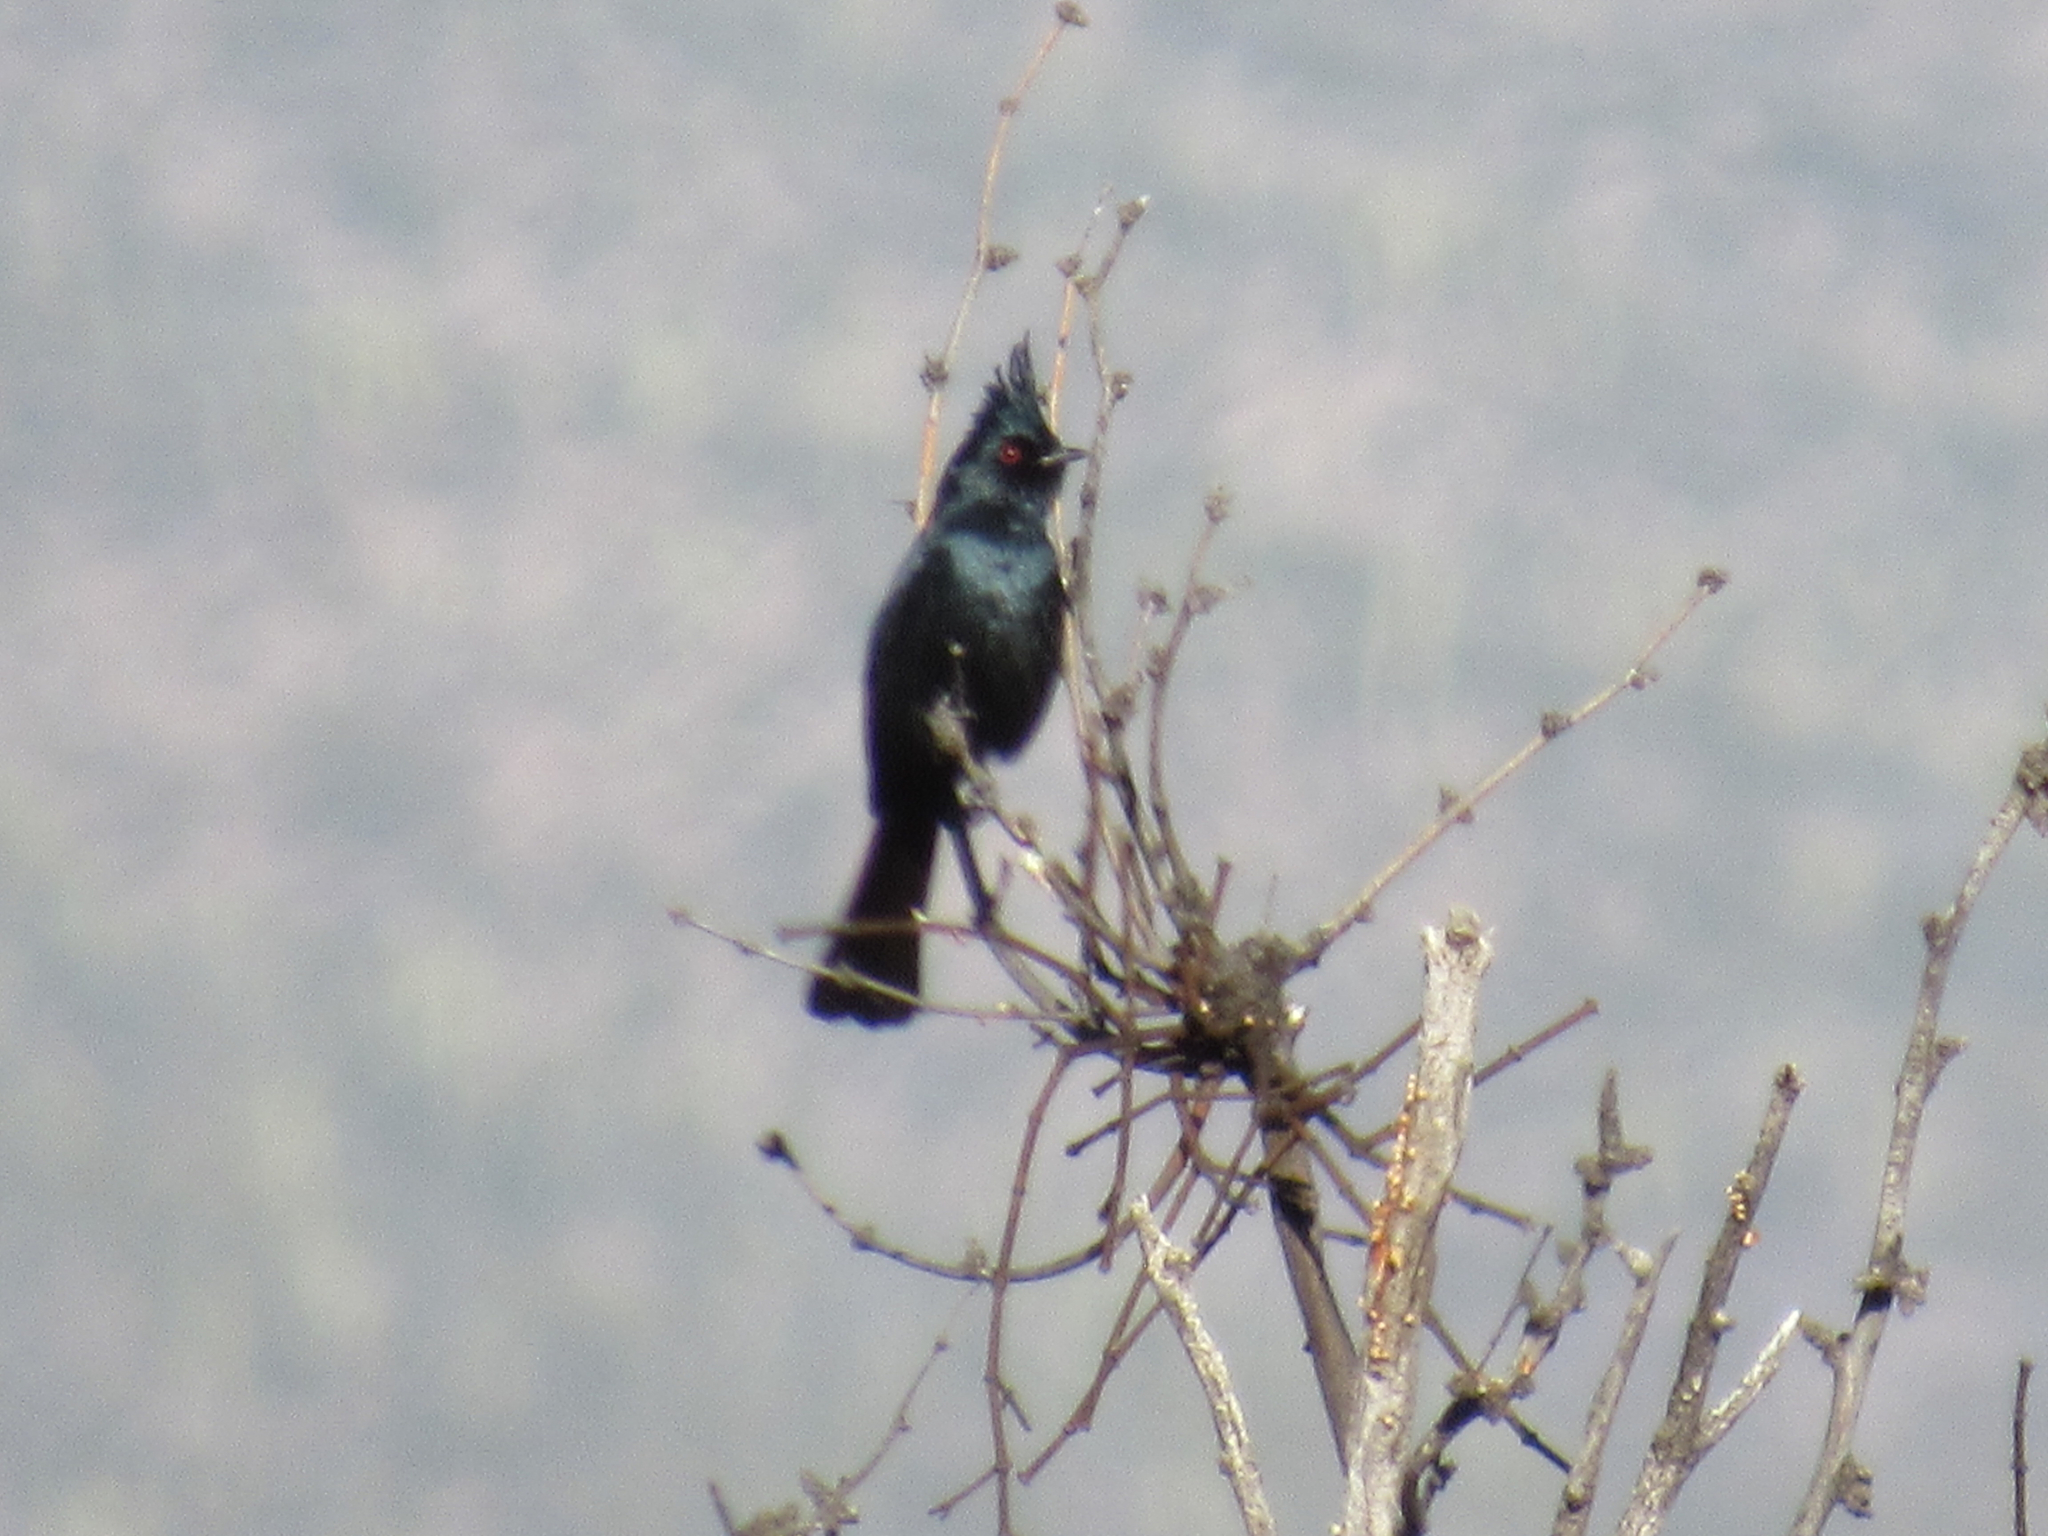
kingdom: Animalia
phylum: Chordata
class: Aves
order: Passeriformes
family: Ptilogonatidae
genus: Phainopepla
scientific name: Phainopepla nitens
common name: Phainopepla
